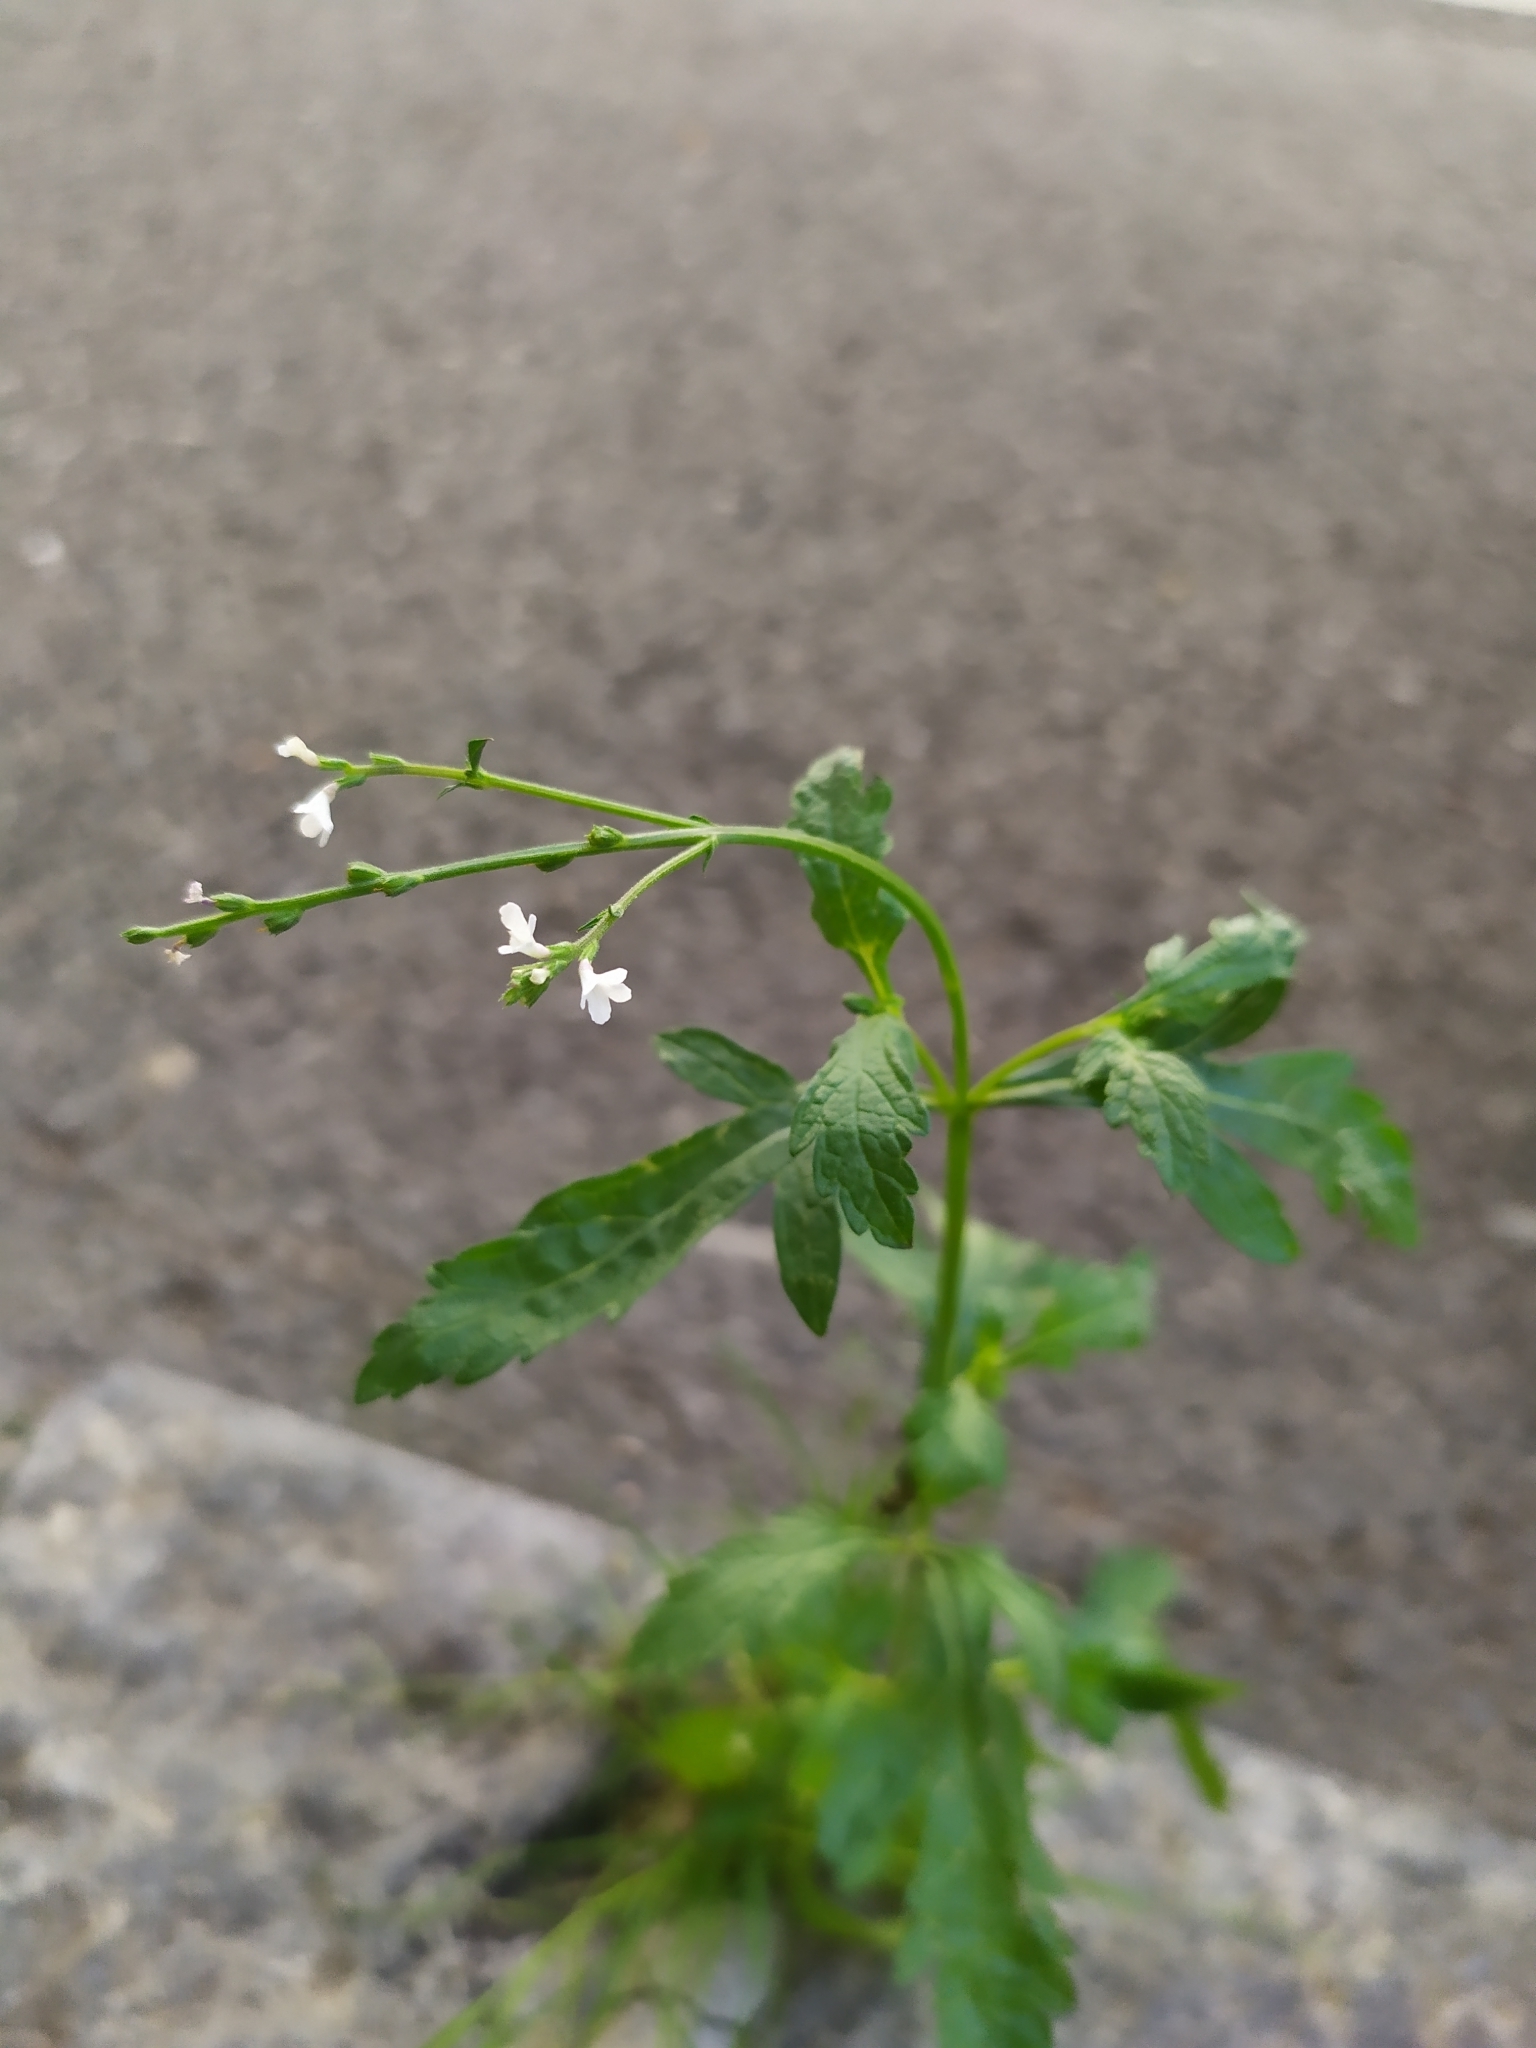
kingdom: Plantae
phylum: Tracheophyta
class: Magnoliopsida
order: Lamiales
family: Verbenaceae
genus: Verbena
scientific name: Verbena officinalis
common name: Vervain
